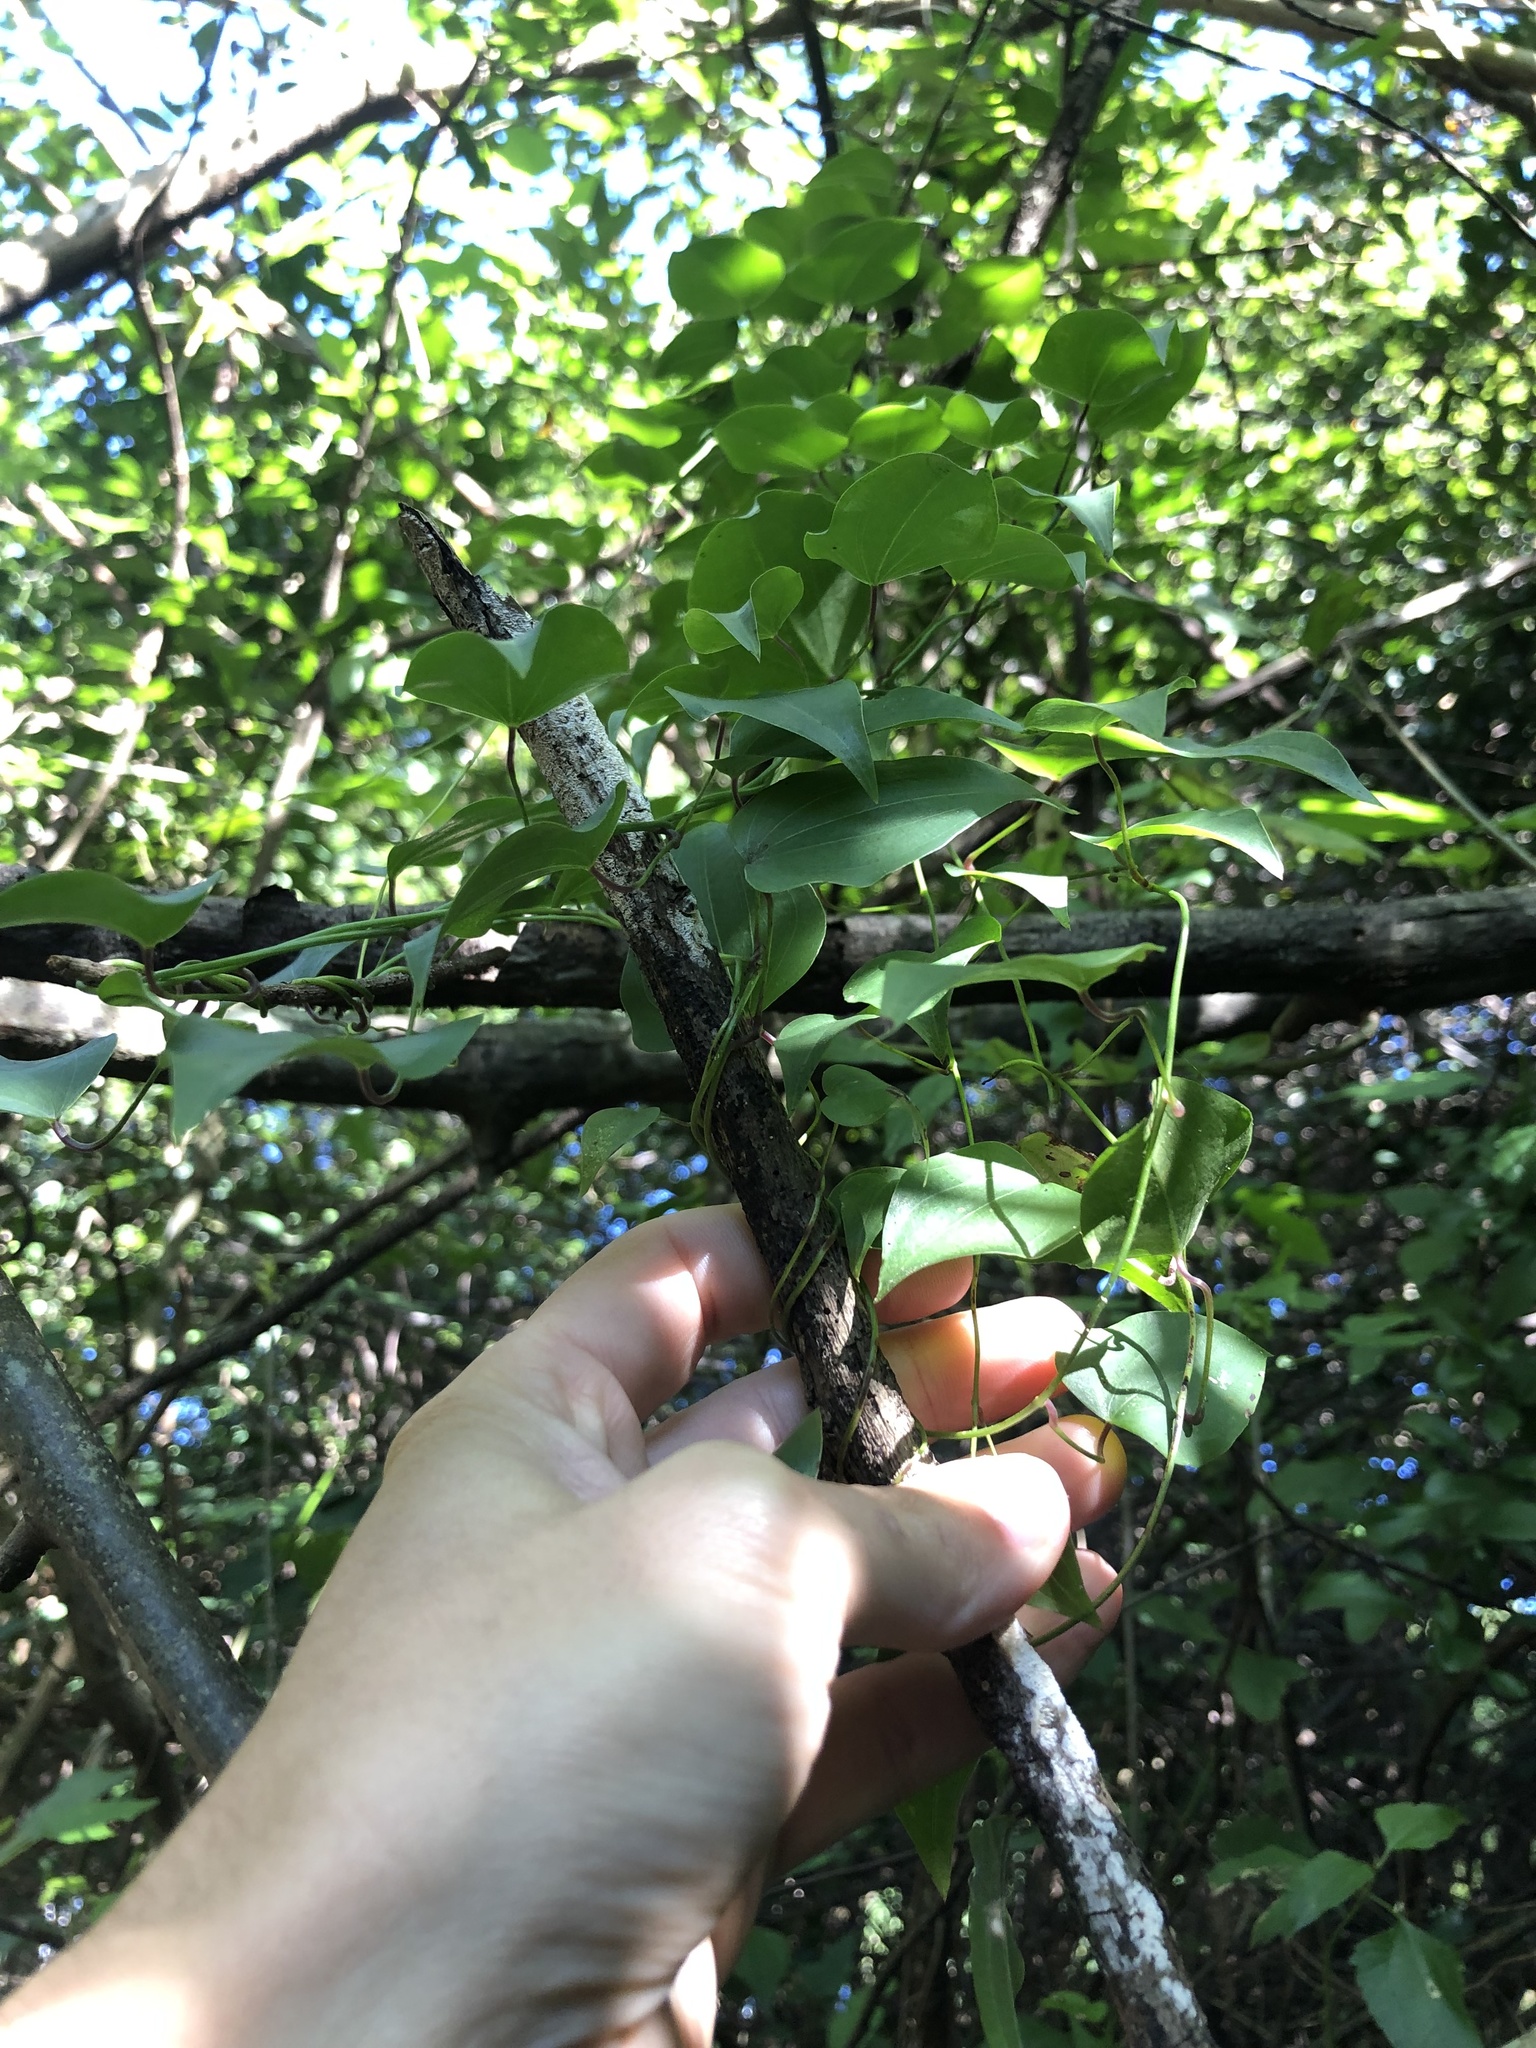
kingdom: Plantae
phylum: Tracheophyta
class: Liliopsida
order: Dioscoreales
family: Dioscoreaceae
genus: Dioscorea
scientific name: Dioscorea cotinifolia
